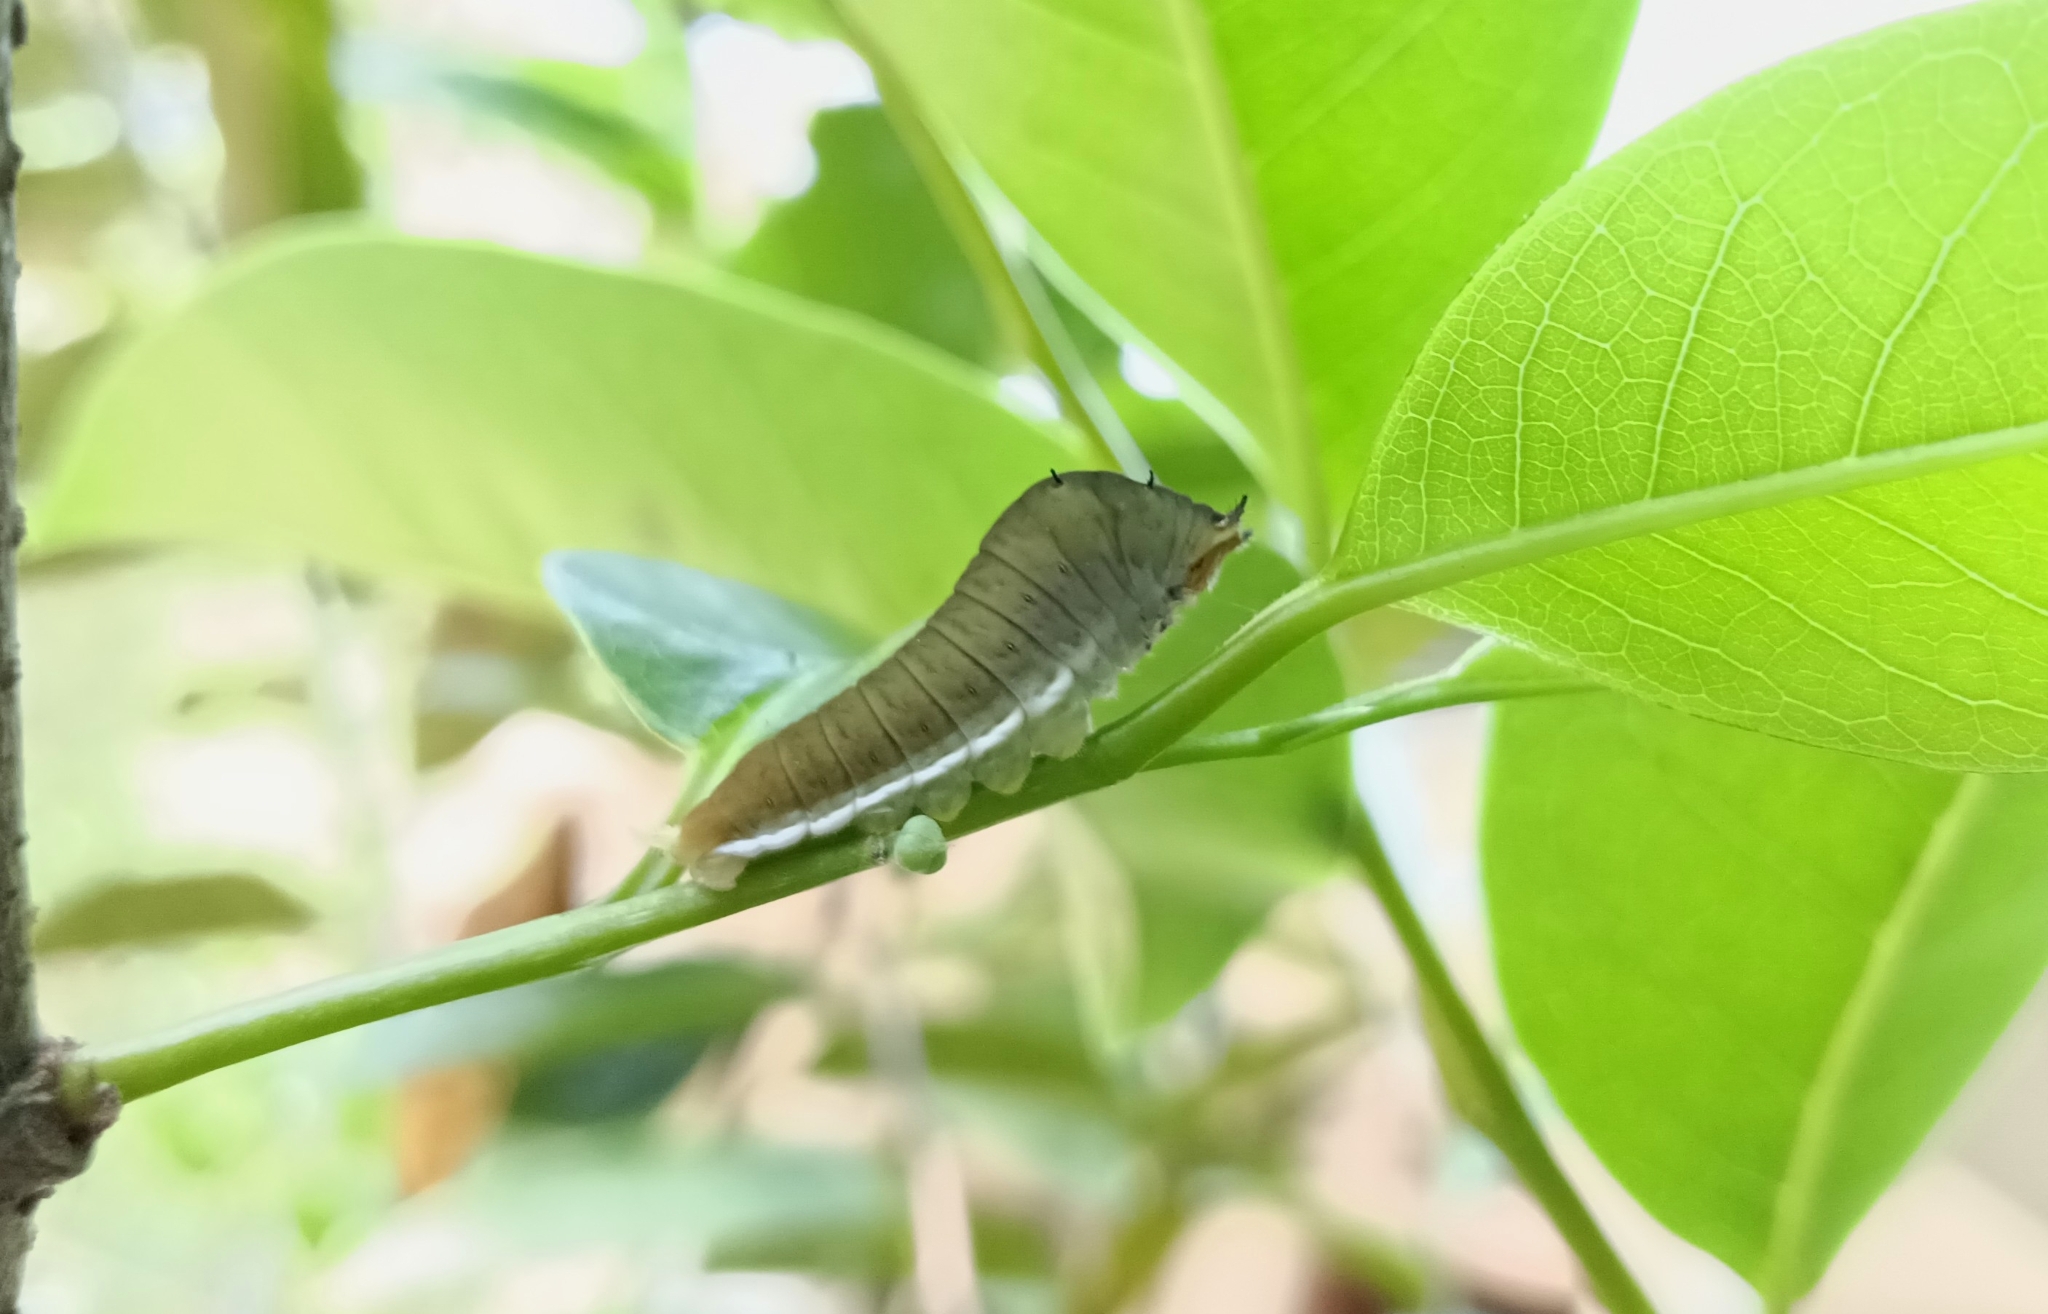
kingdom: Animalia
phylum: Arthropoda
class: Insecta
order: Lepidoptera
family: Papilionidae
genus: Graphium
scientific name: Graphium doson
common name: Common jay
